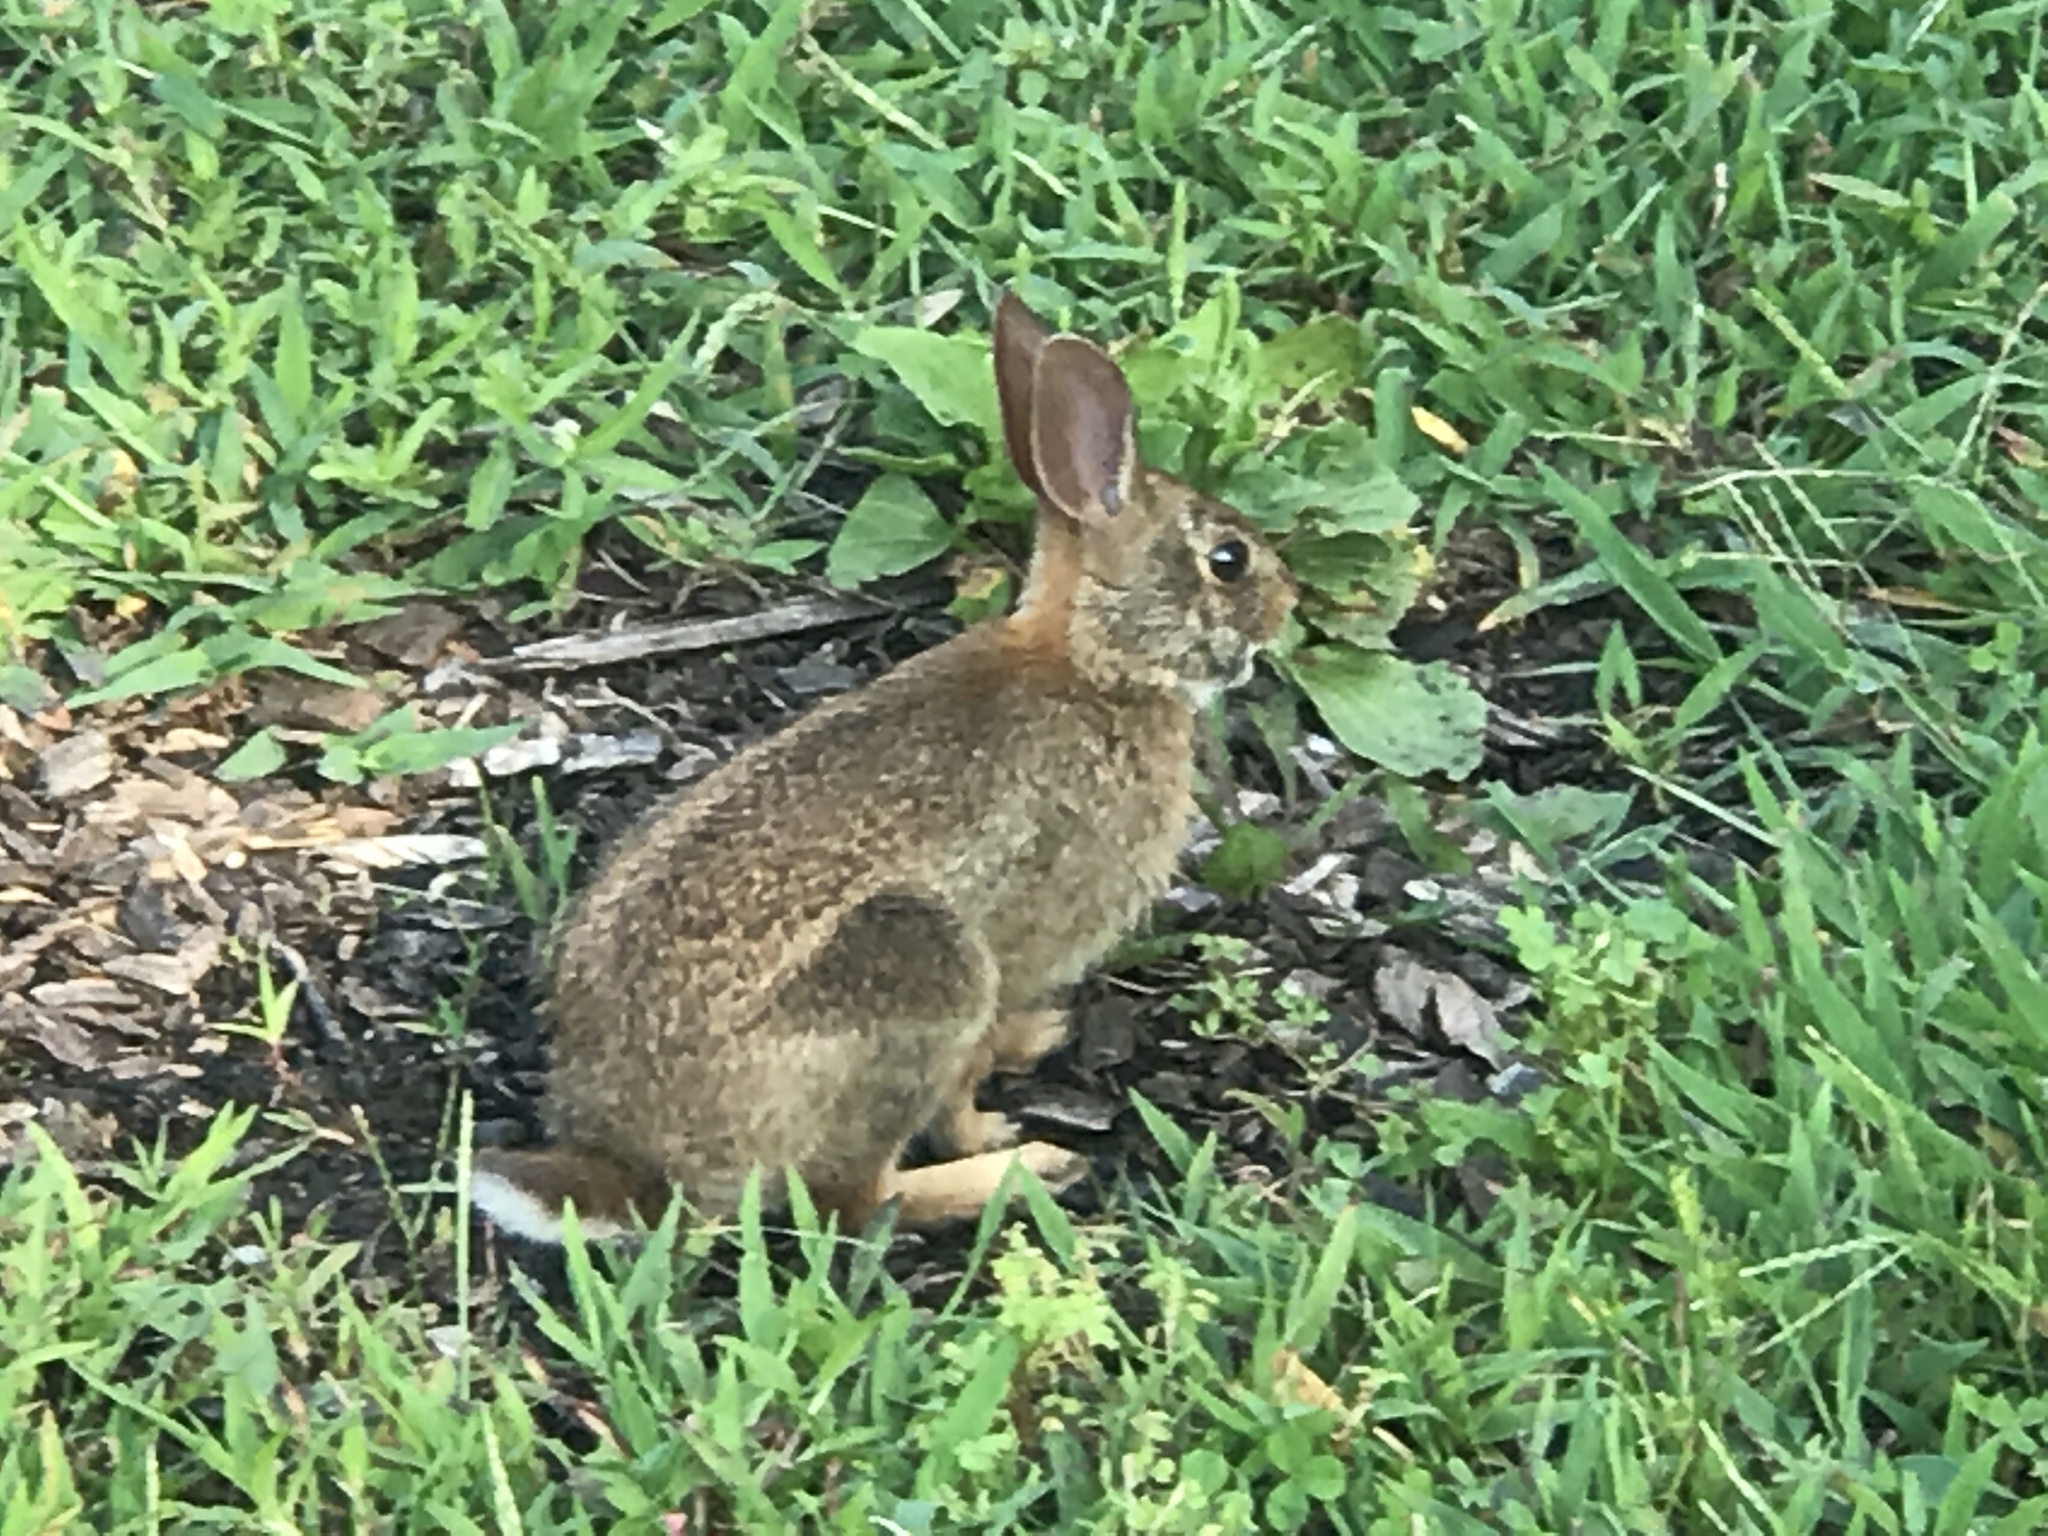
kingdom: Animalia
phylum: Chordata
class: Mammalia
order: Lagomorpha
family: Leporidae
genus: Sylvilagus
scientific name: Sylvilagus floridanus
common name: Eastern cottontail
